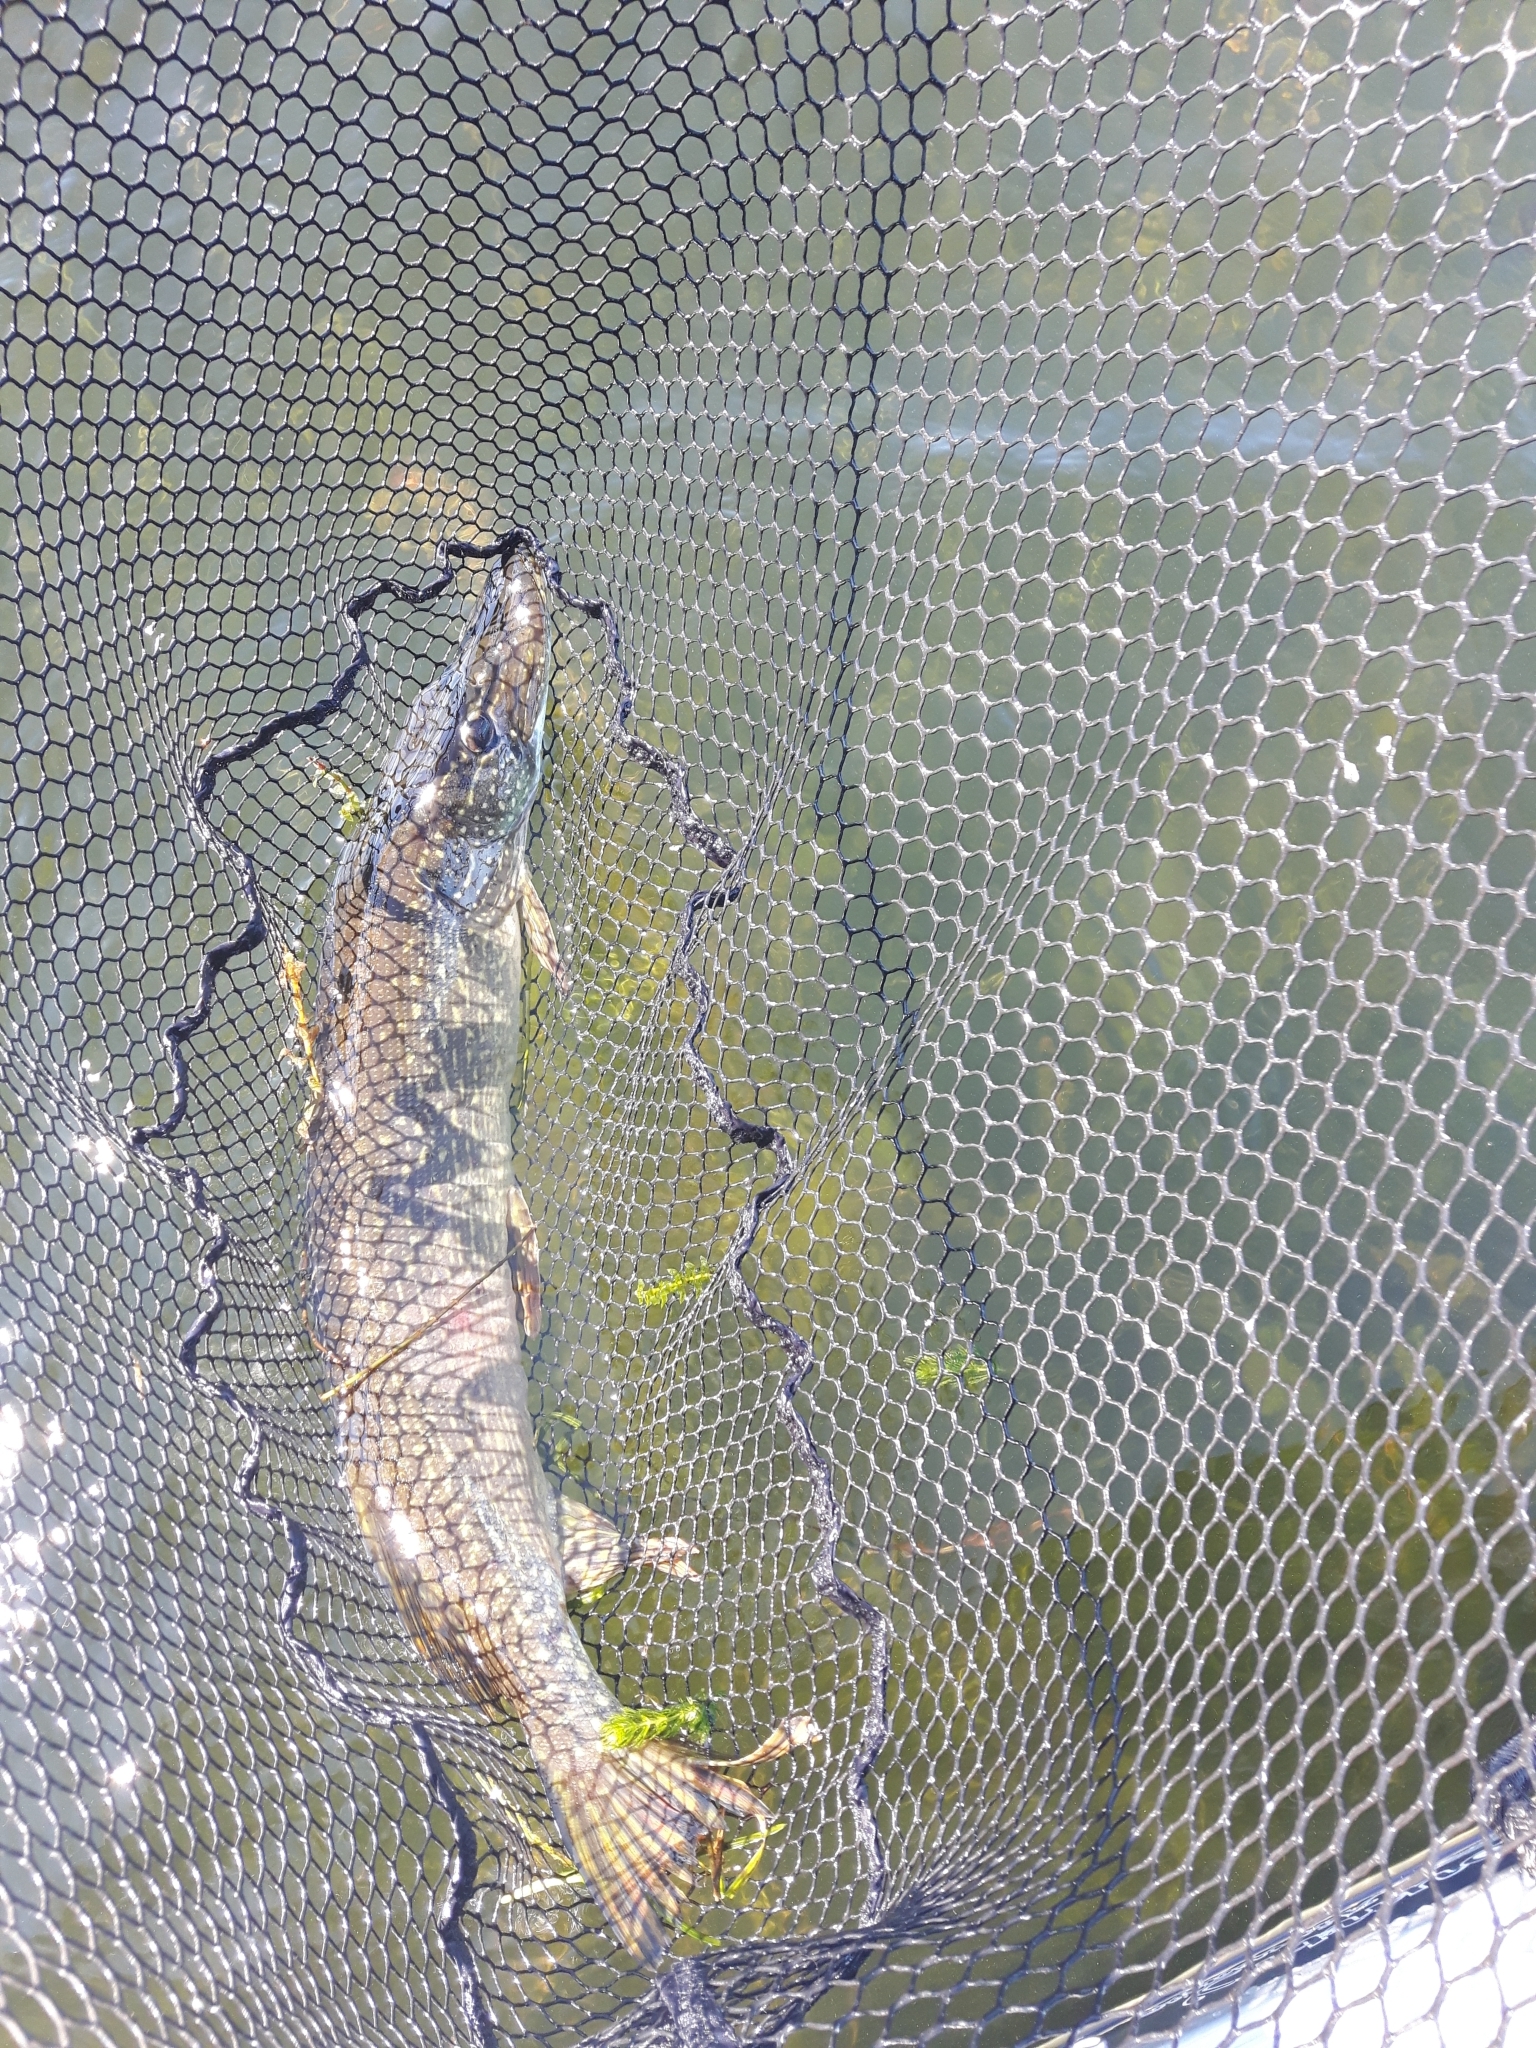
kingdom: Animalia
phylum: Chordata
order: Esociformes
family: Esocidae
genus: Esox
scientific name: Esox lucius
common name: Northern pike
